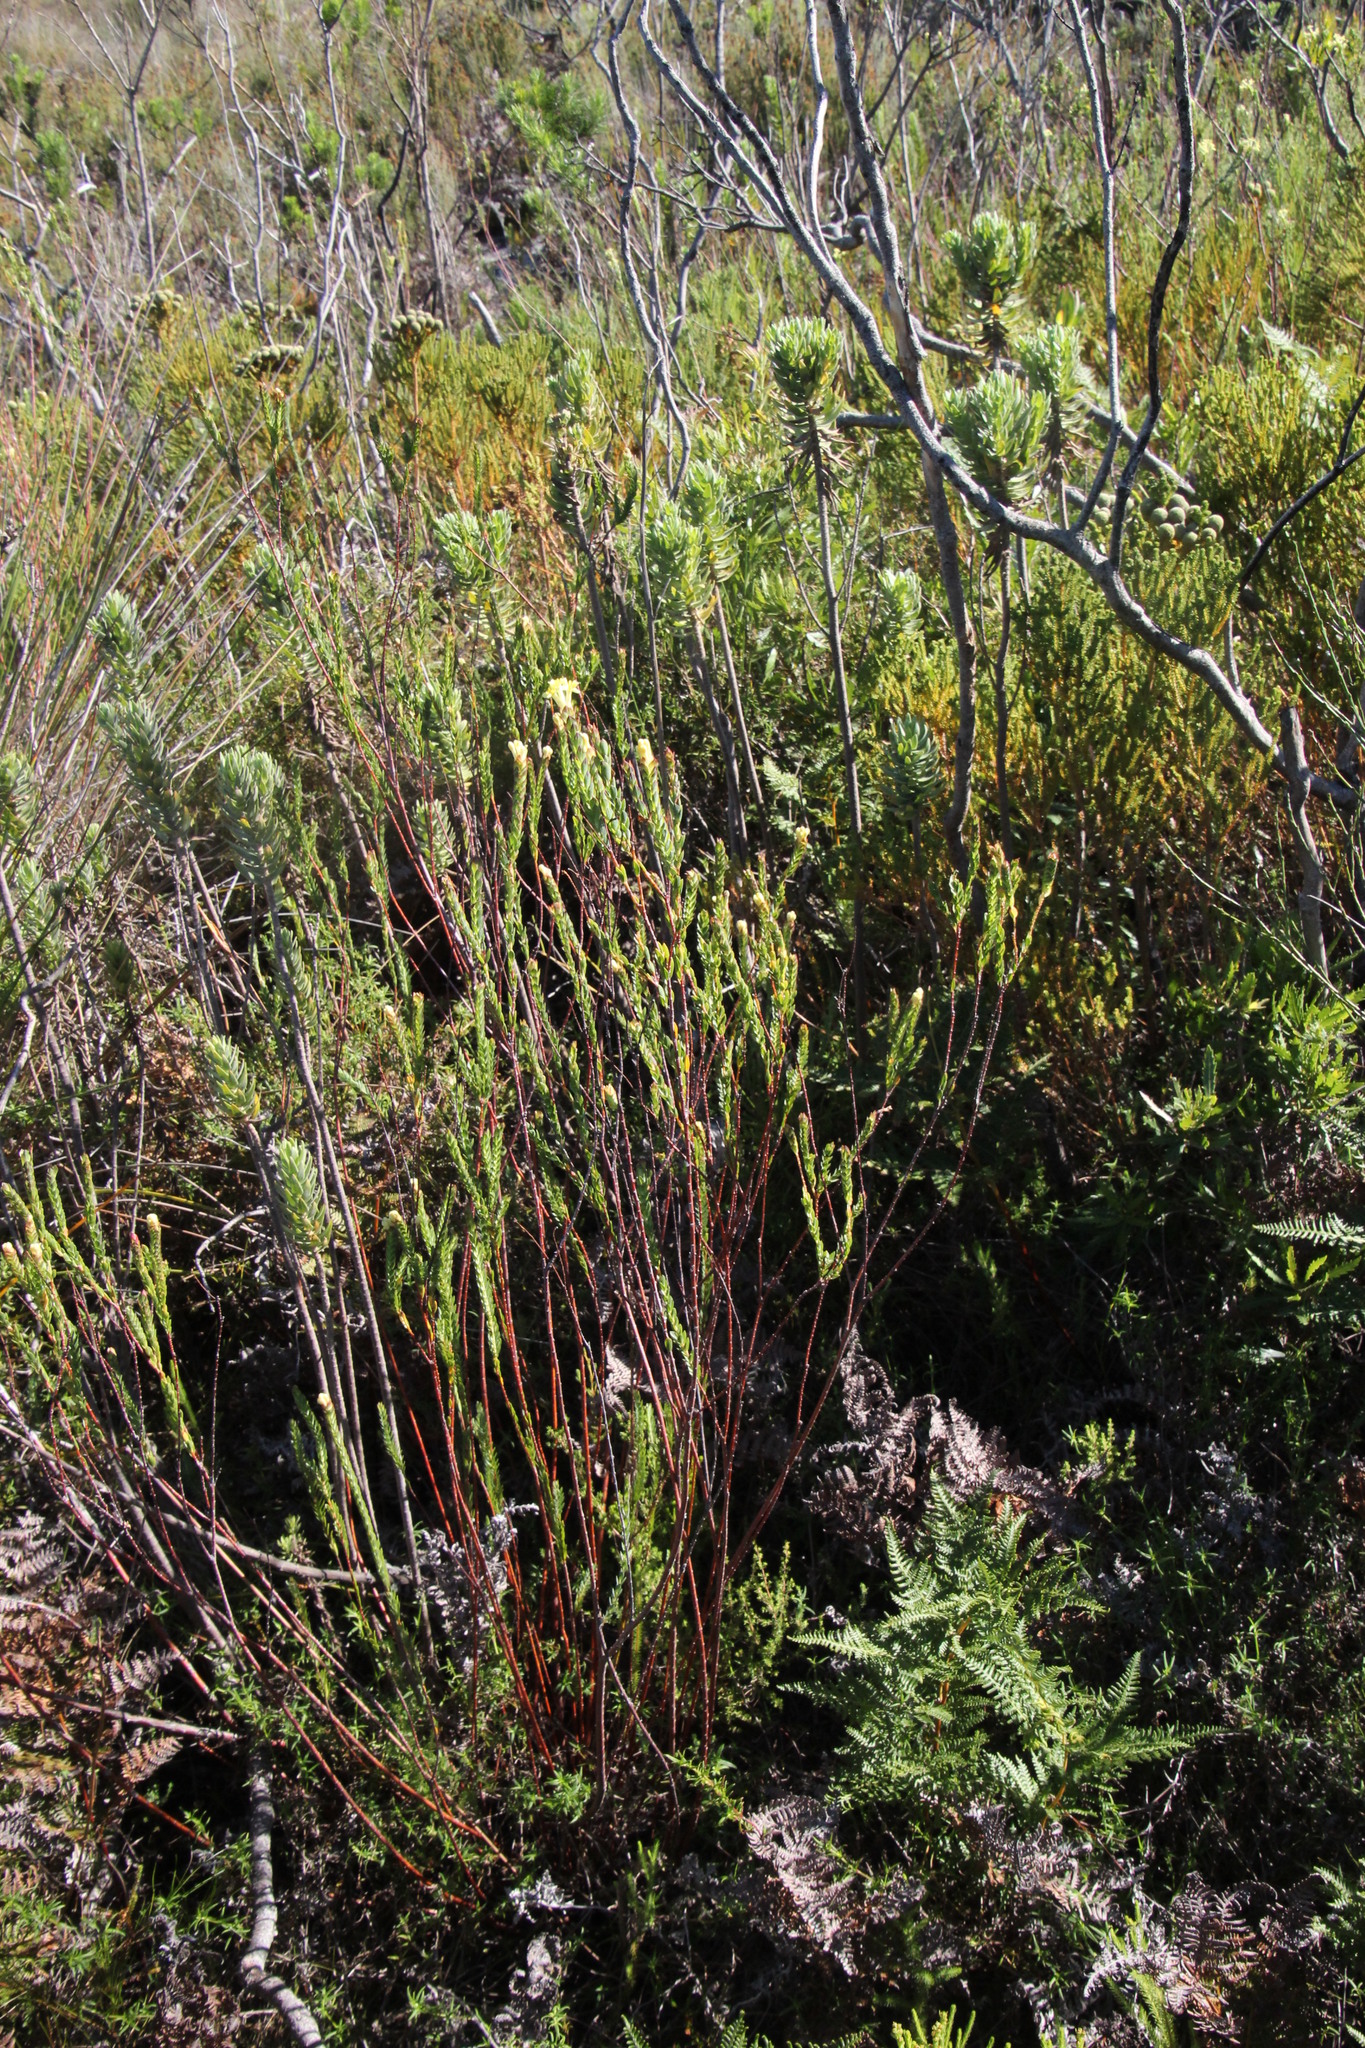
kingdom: Plantae
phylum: Tracheophyta
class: Magnoliopsida
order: Malvales
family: Thymelaeaceae
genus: Gnidia
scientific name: Gnidia oppositifolia
